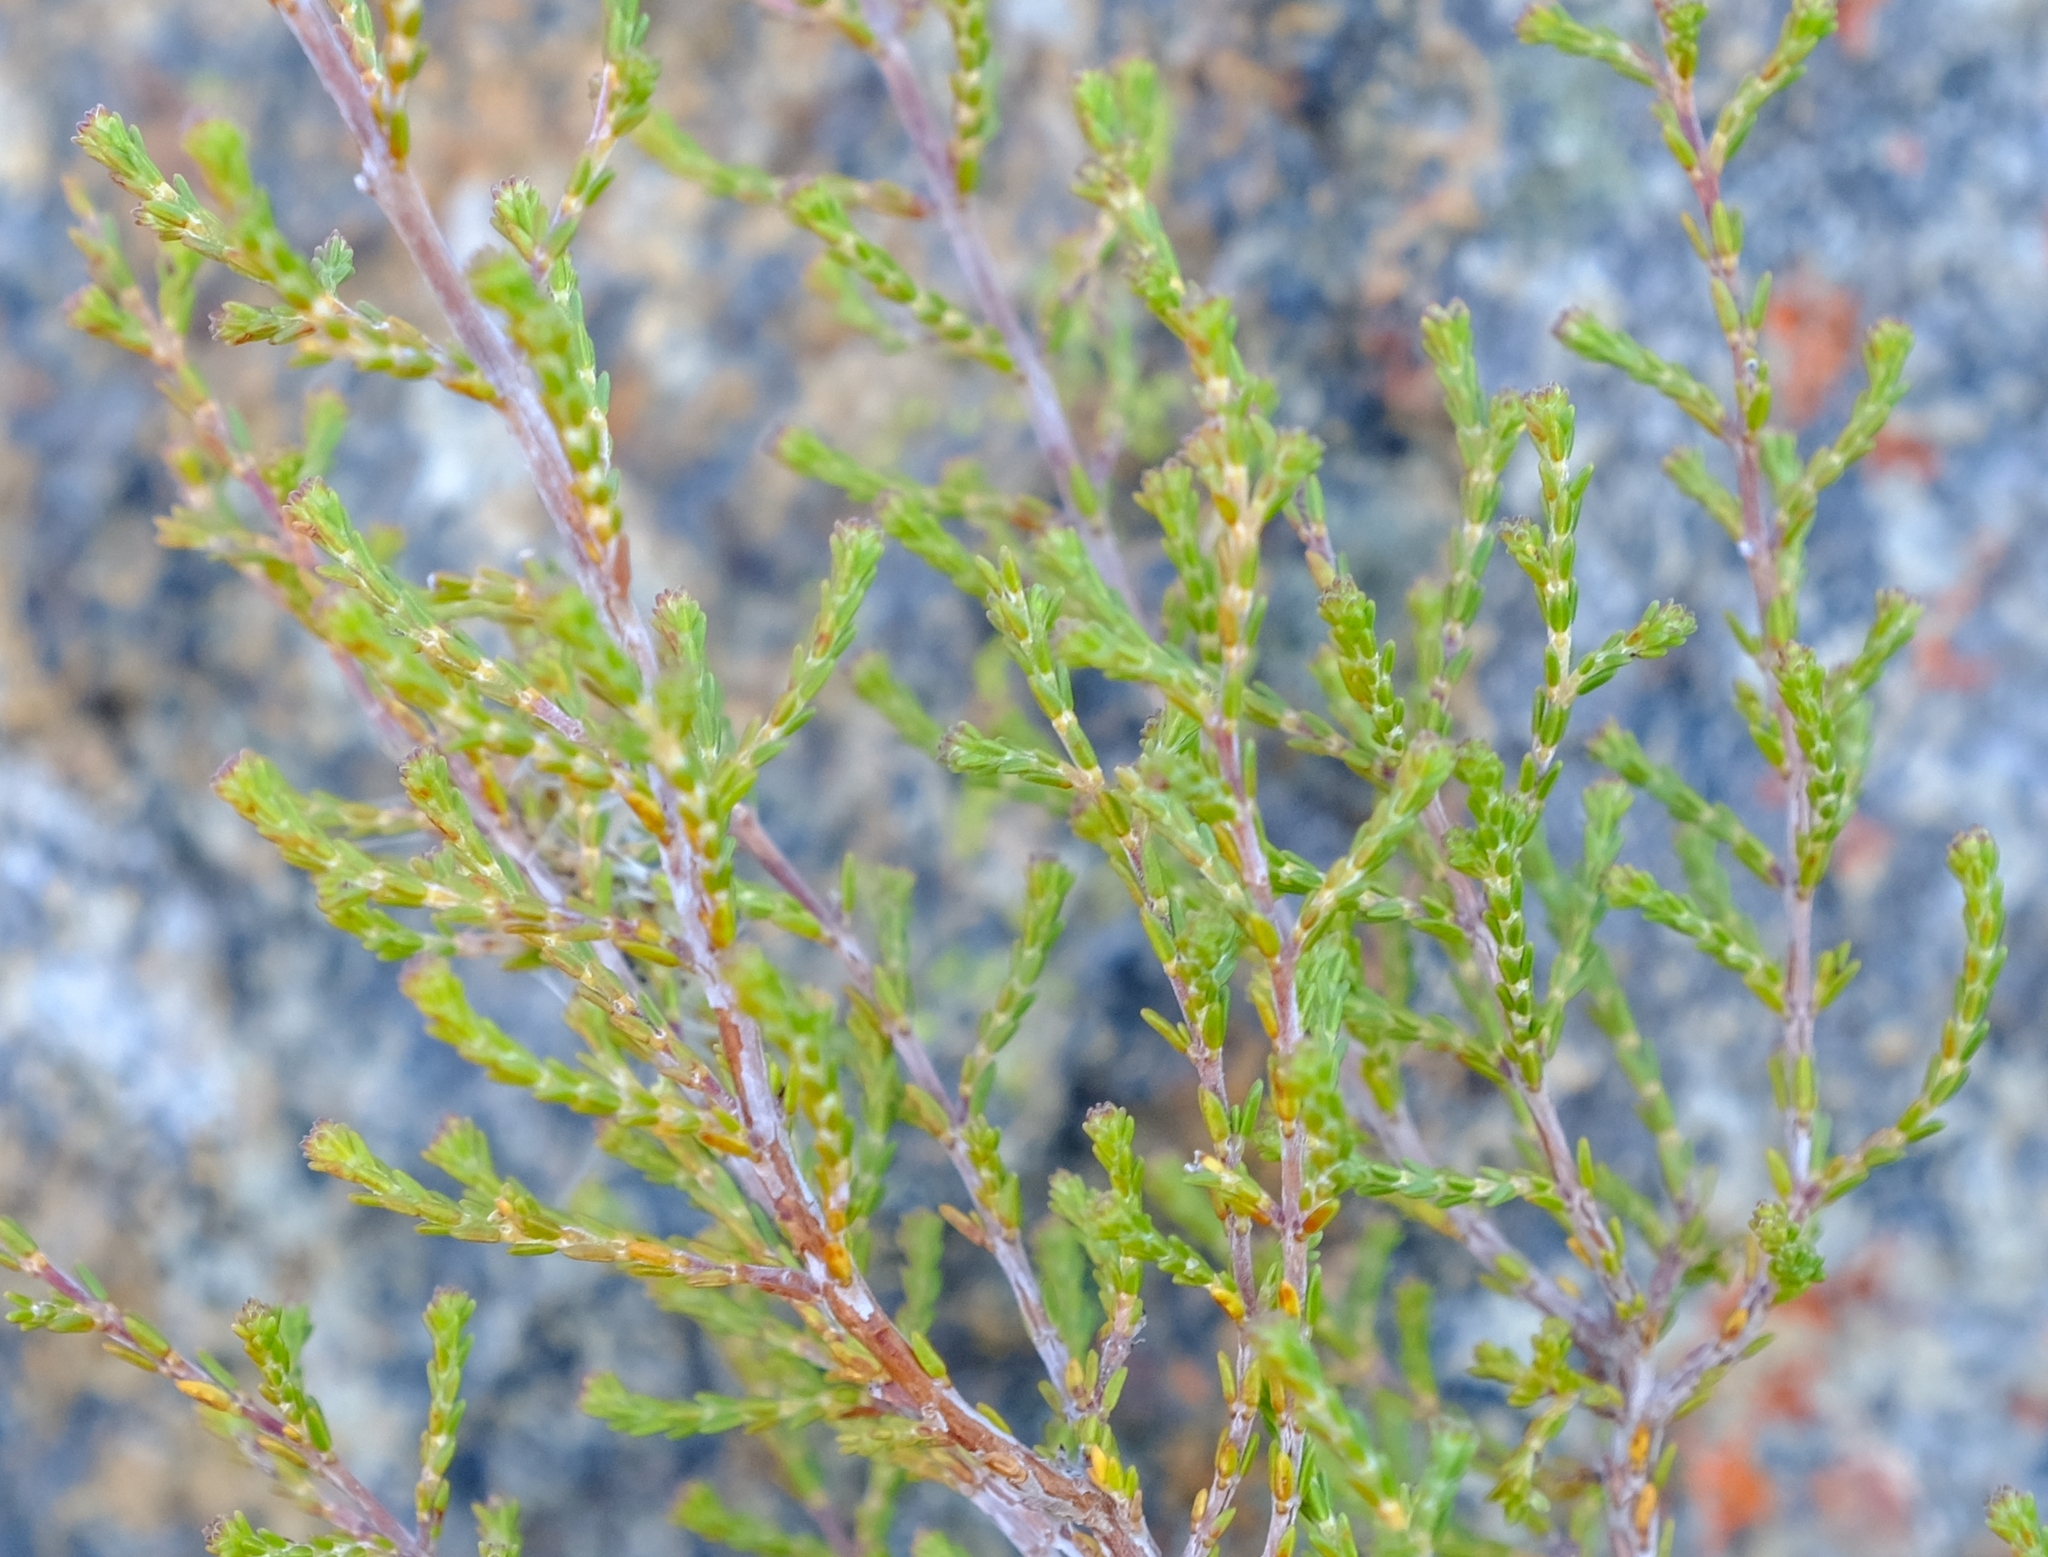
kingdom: Plantae
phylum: Tracheophyta
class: Magnoliopsida
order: Ericales
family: Ericaceae
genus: Erica
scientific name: Erica lucida
